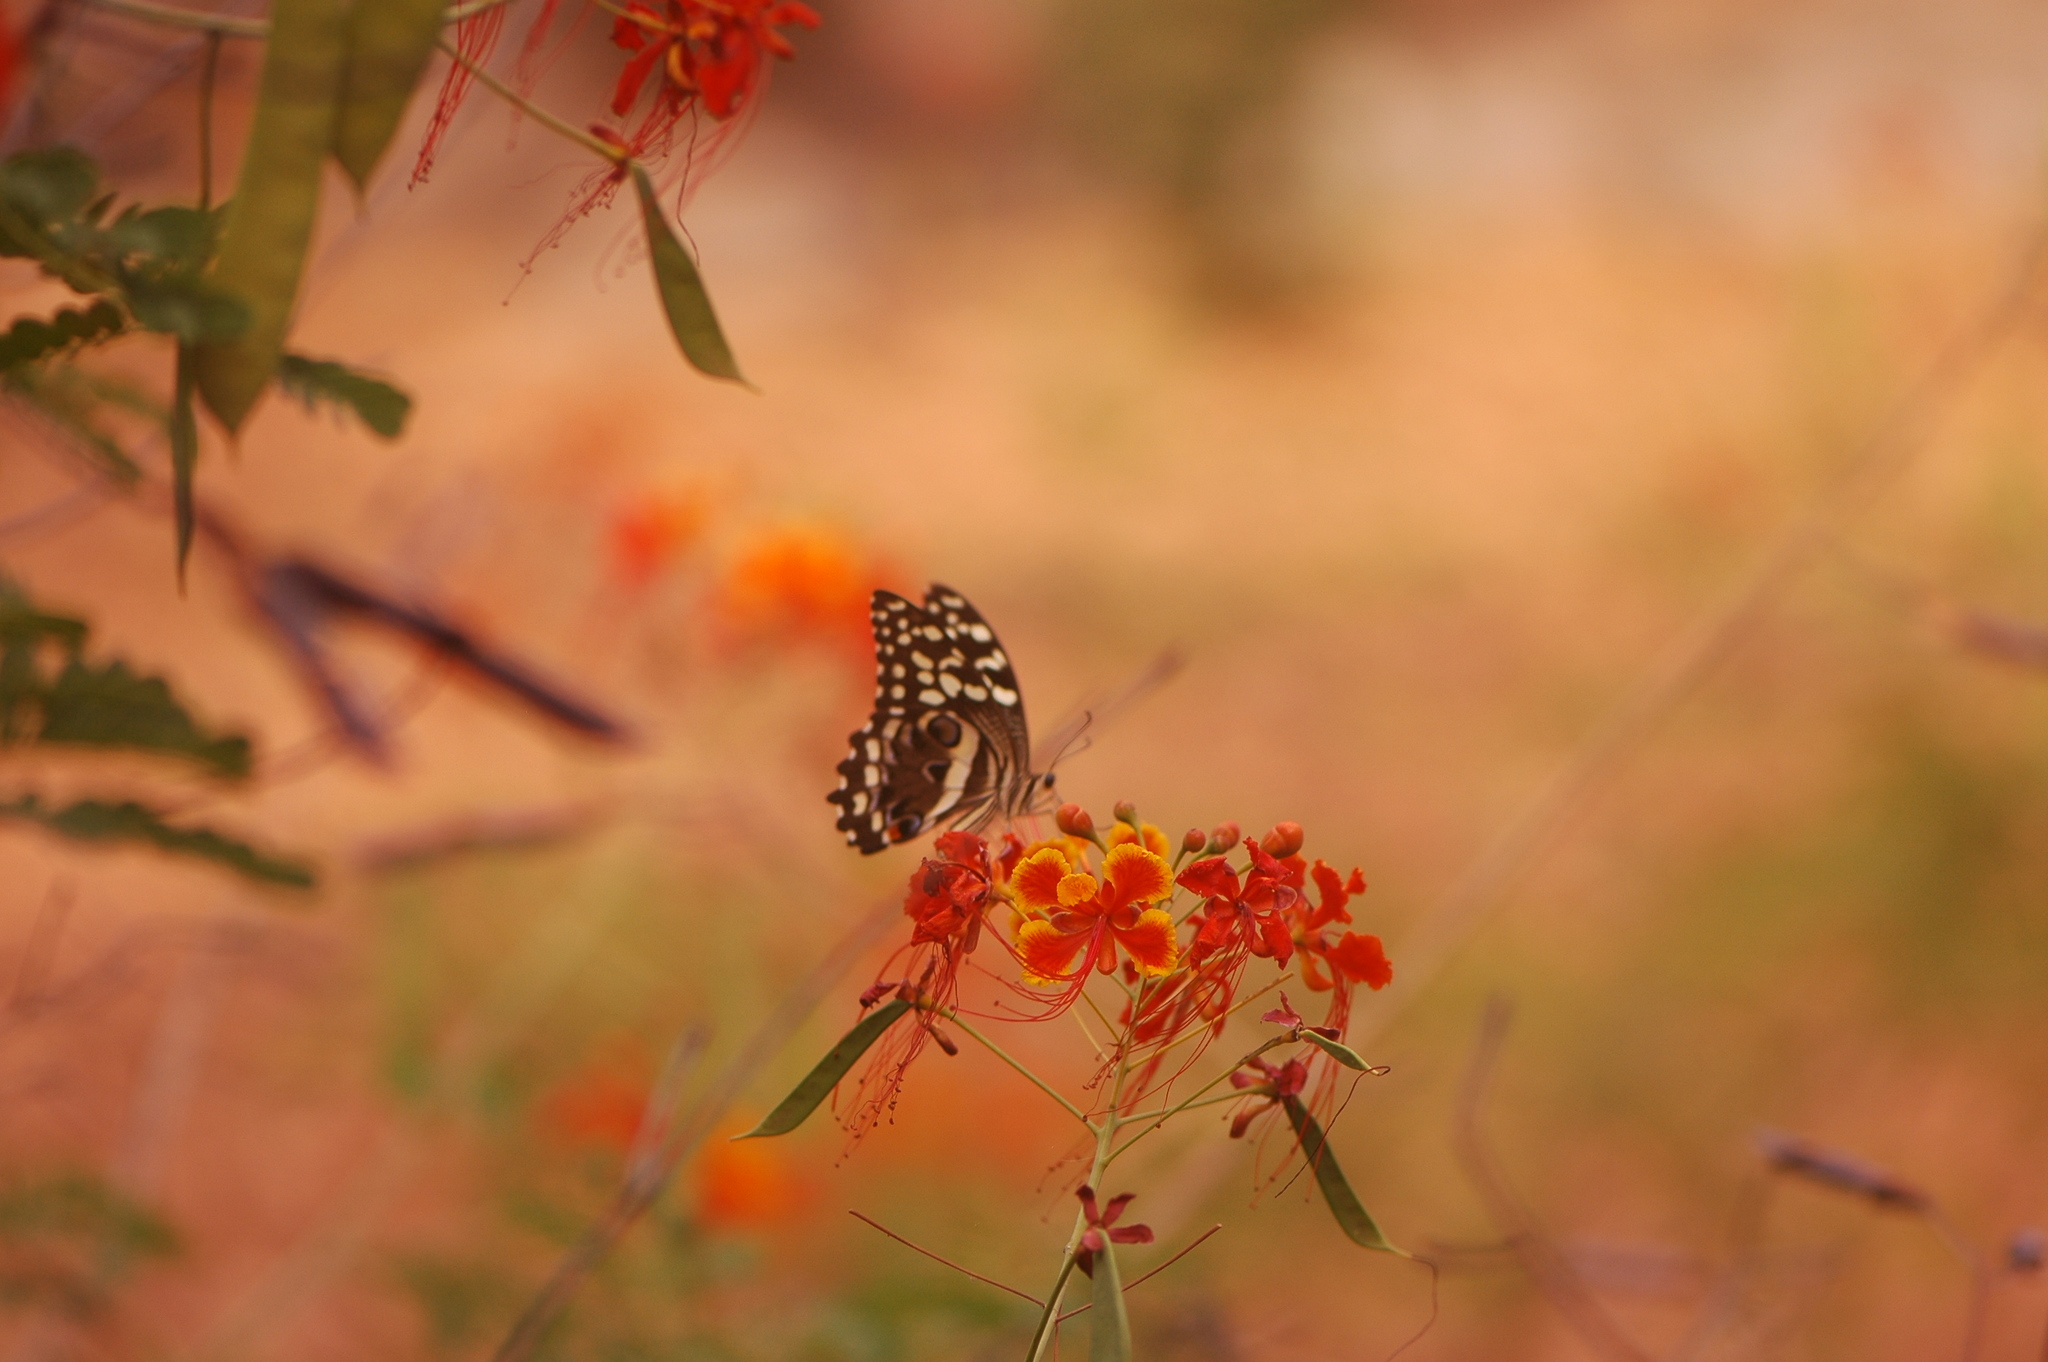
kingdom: Animalia
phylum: Arthropoda
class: Insecta
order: Lepidoptera
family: Papilionidae
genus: Papilio
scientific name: Papilio demodocus
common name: Christmas butterfly
